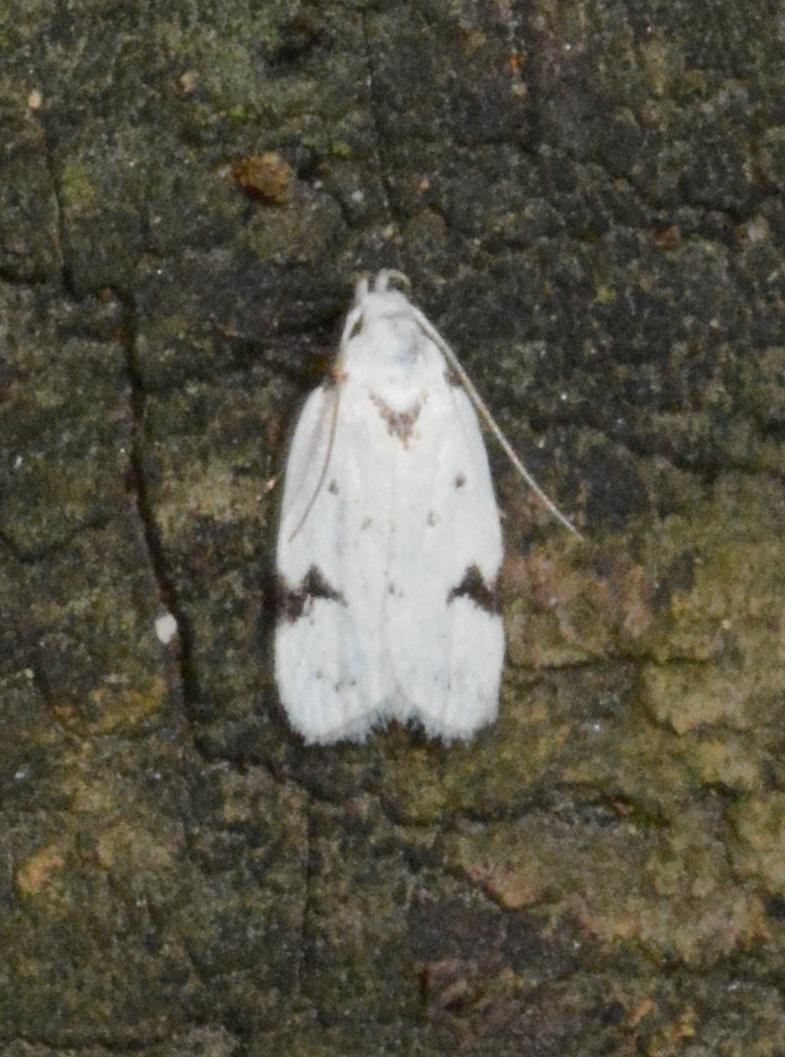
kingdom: Animalia
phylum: Arthropoda
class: Insecta
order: Lepidoptera
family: Oecophoridae
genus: Inga
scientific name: Inga sparsiciliella
